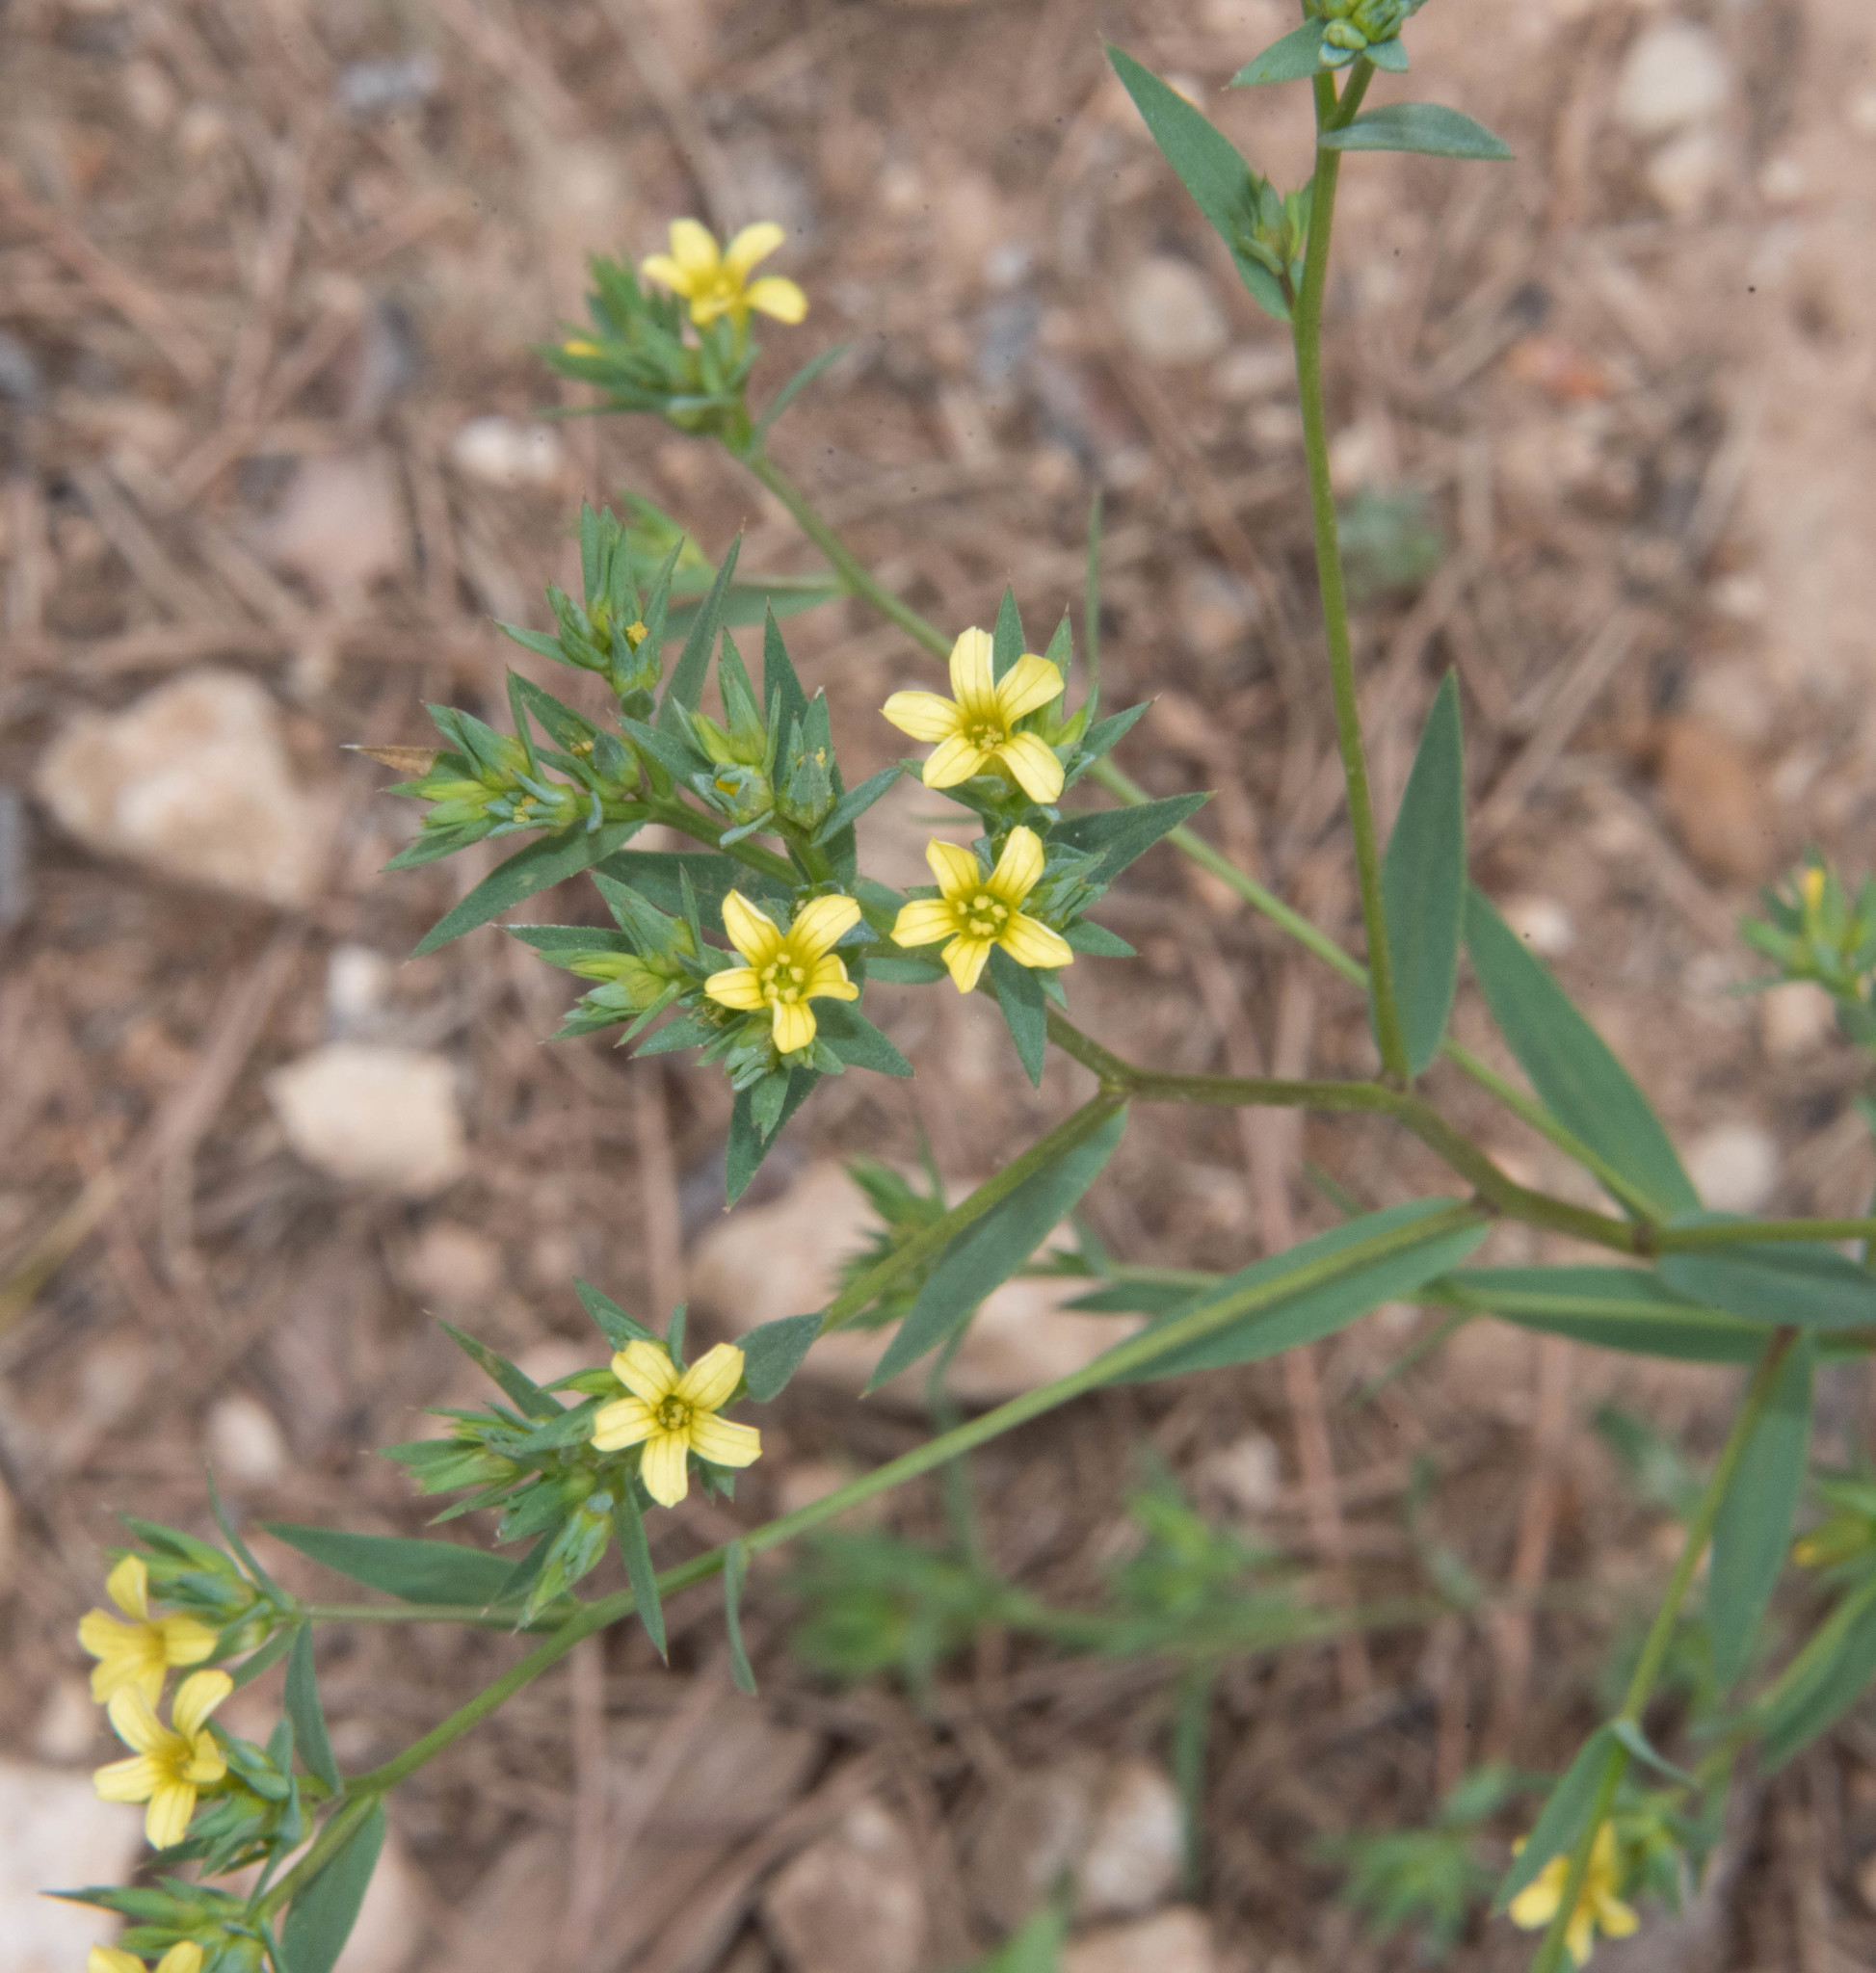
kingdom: Plantae
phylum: Tracheophyta
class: Magnoliopsida
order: Malpighiales
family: Linaceae
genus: Linum
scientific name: Linum strictum
